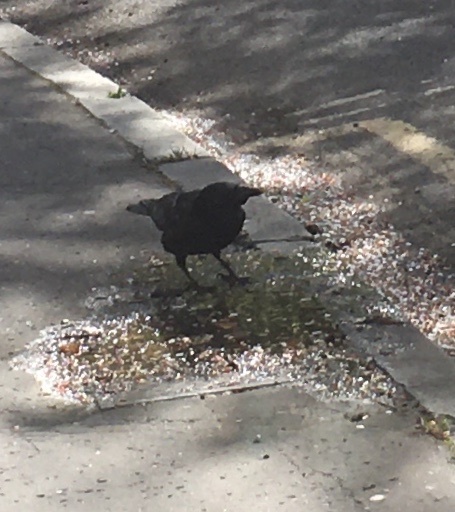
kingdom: Animalia
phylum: Chordata
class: Aves
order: Passeriformes
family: Corvidae
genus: Corvus
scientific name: Corvus corone
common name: Carrion crow
